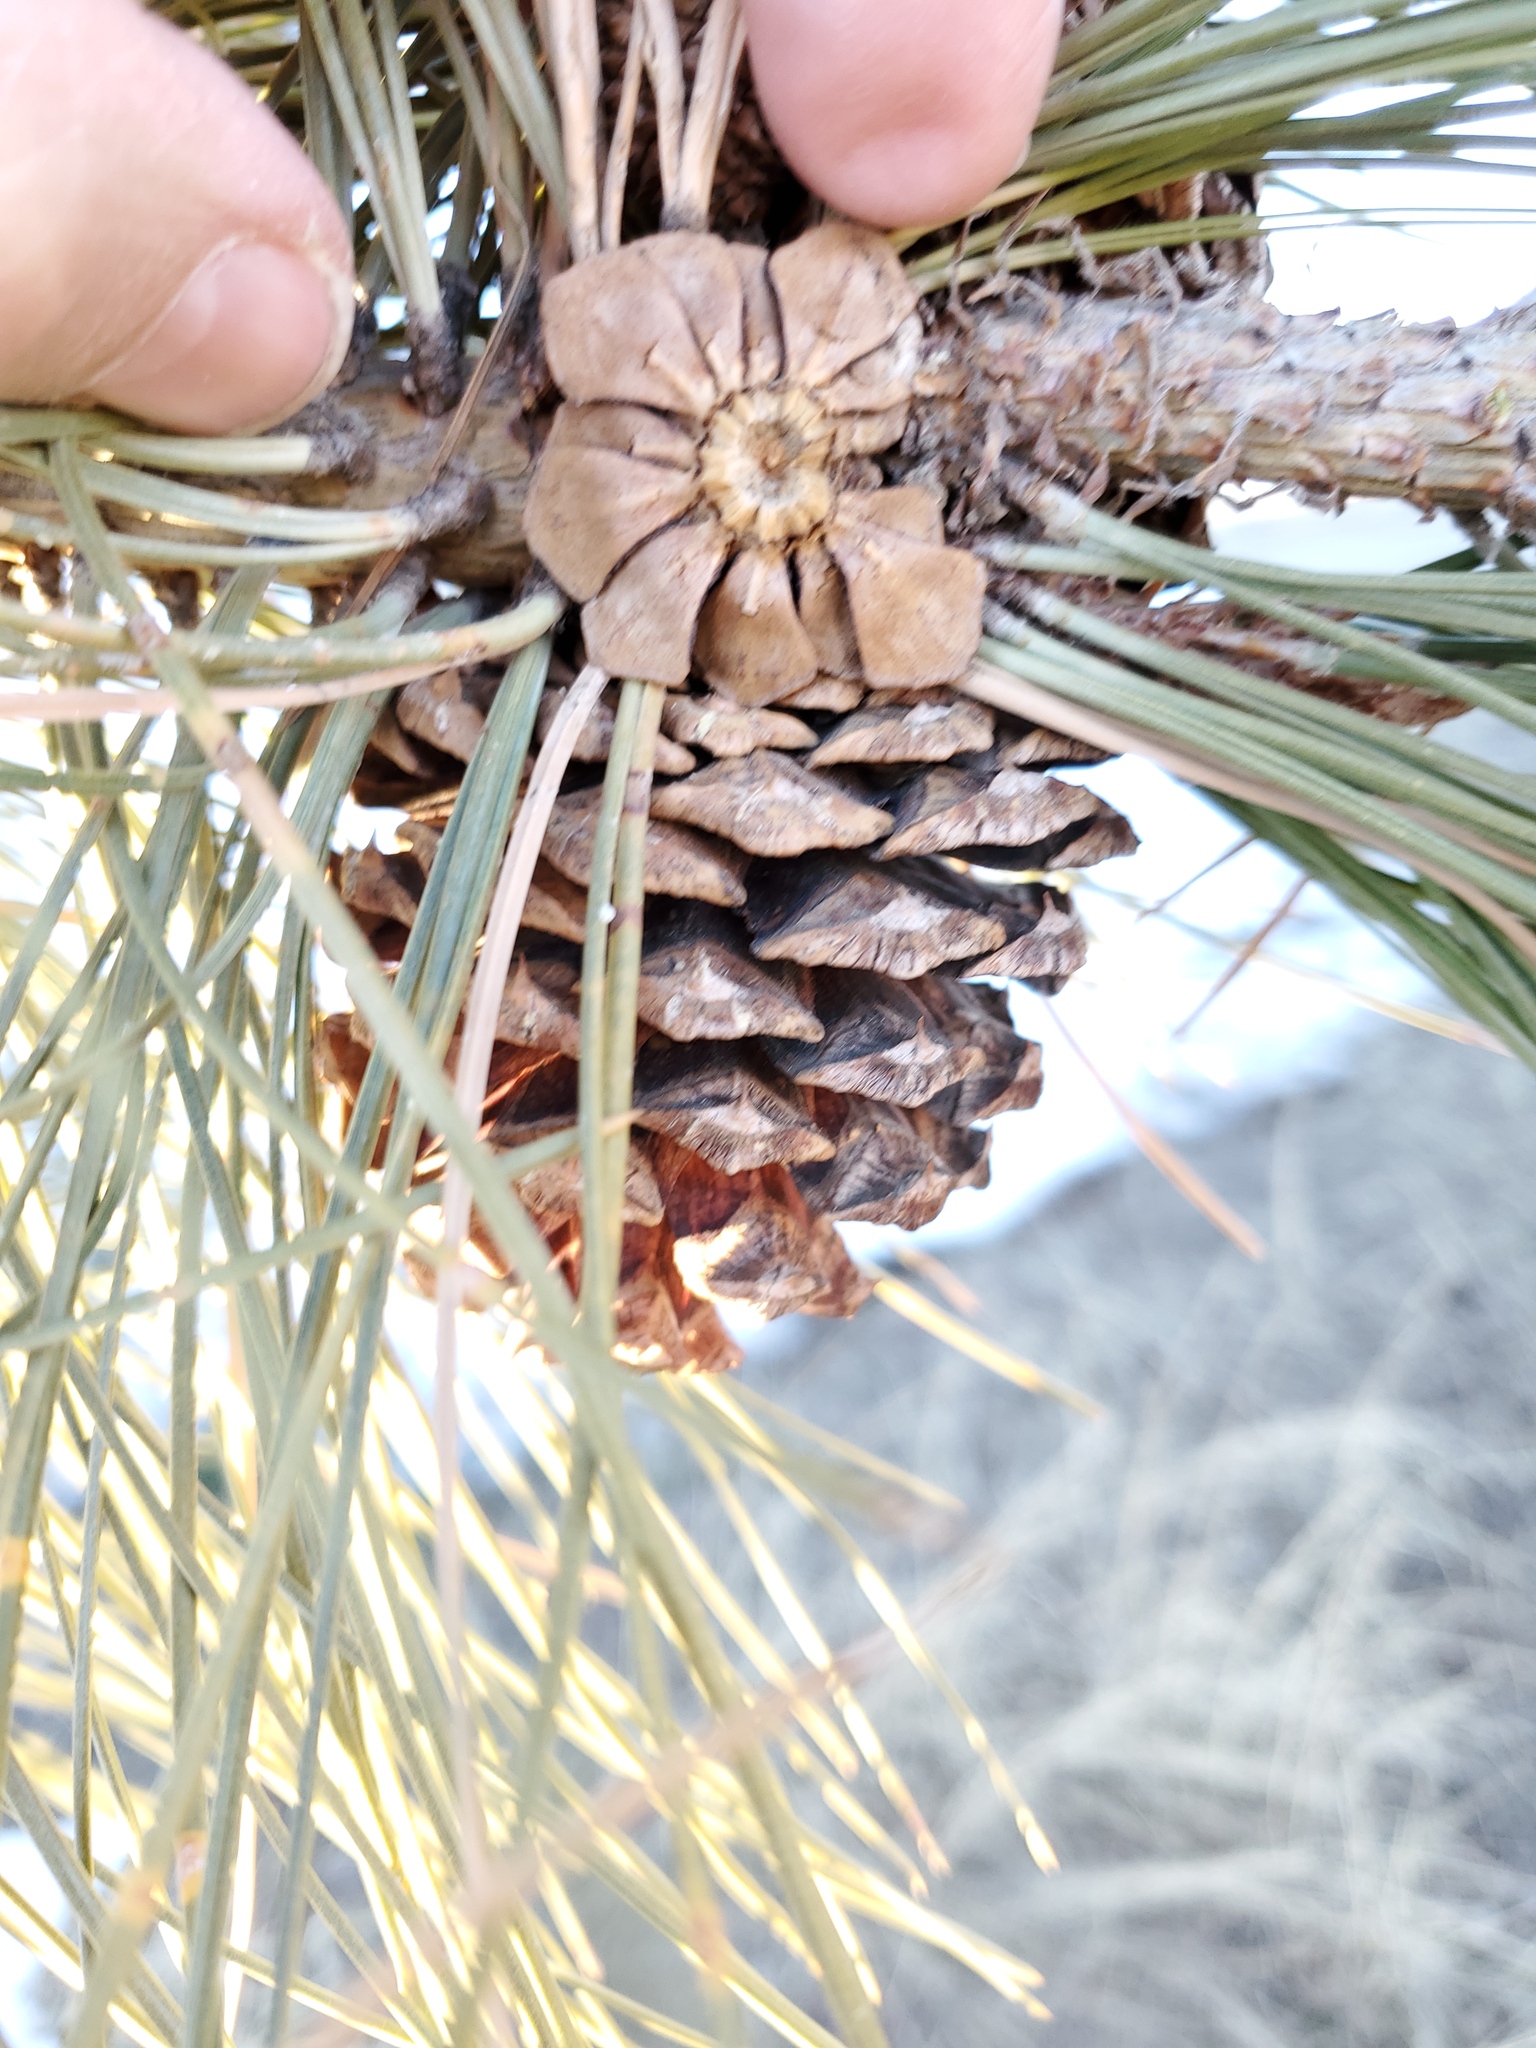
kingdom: Plantae
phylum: Tracheophyta
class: Pinopsida
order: Pinales
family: Pinaceae
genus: Pinus
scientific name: Pinus ponderosa
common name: Western yellow-pine
